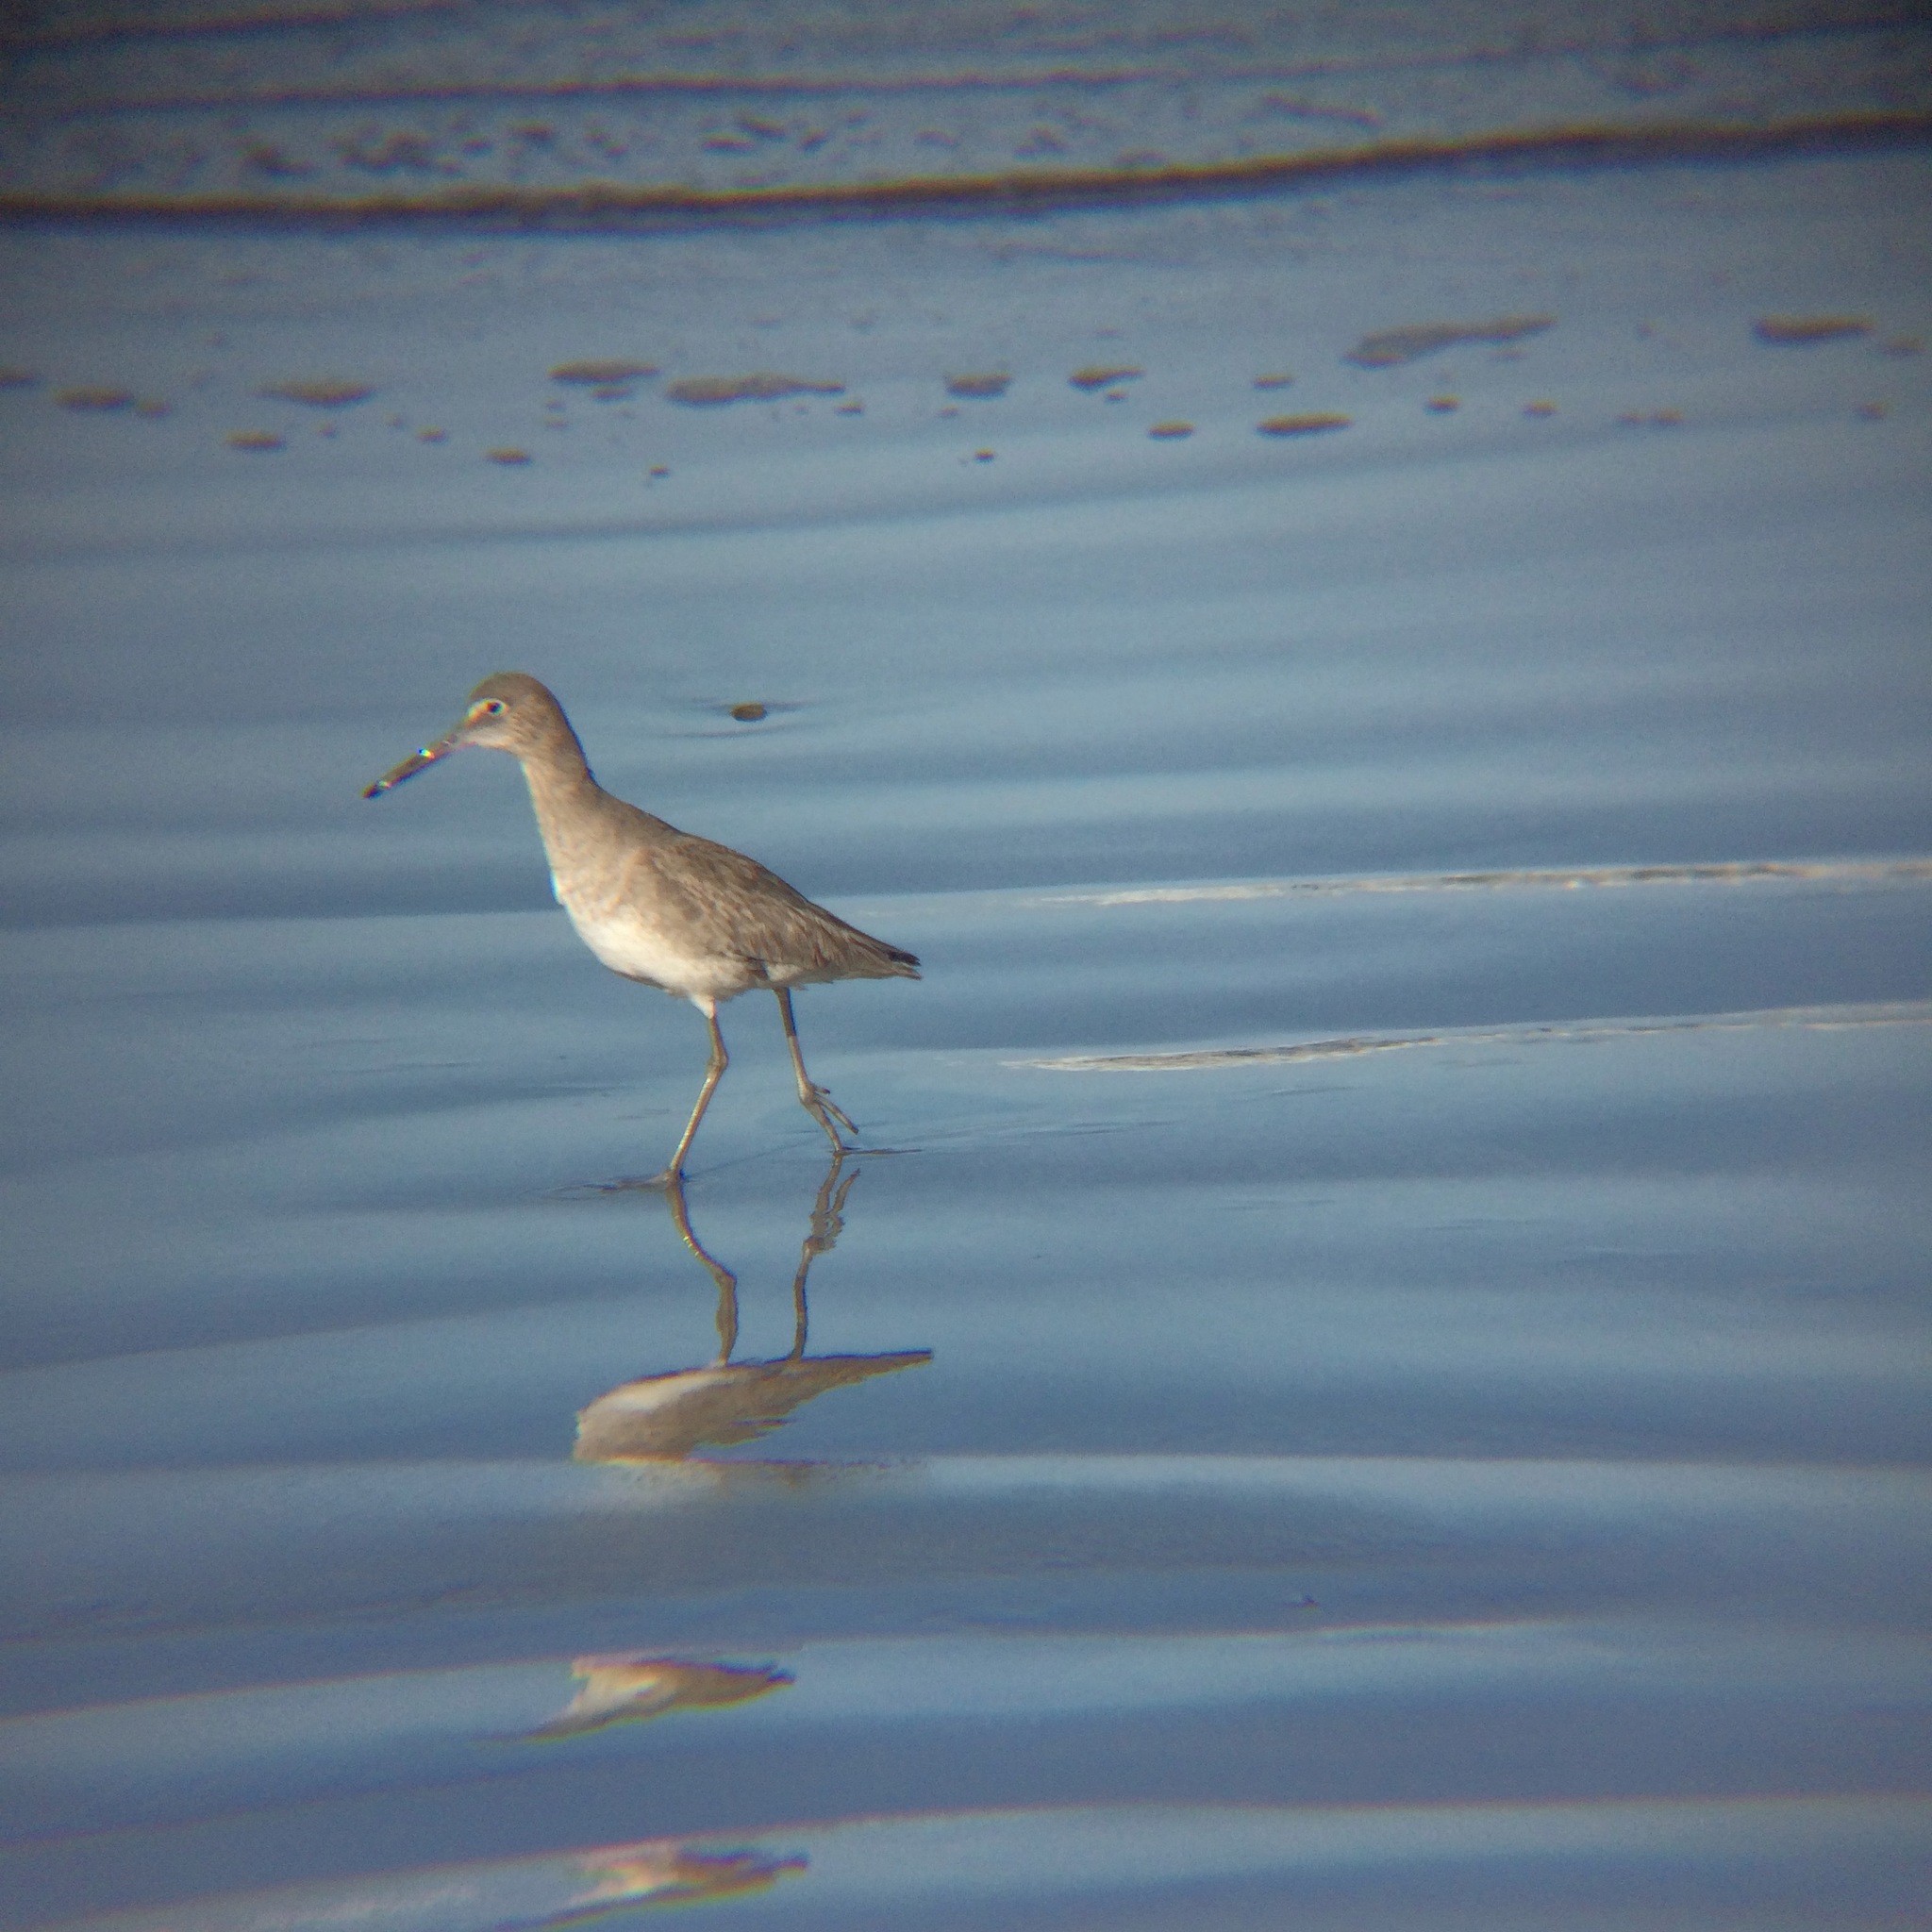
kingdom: Animalia
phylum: Chordata
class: Aves
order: Charadriiformes
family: Scolopacidae
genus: Tringa
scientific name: Tringa semipalmata
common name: Willet
